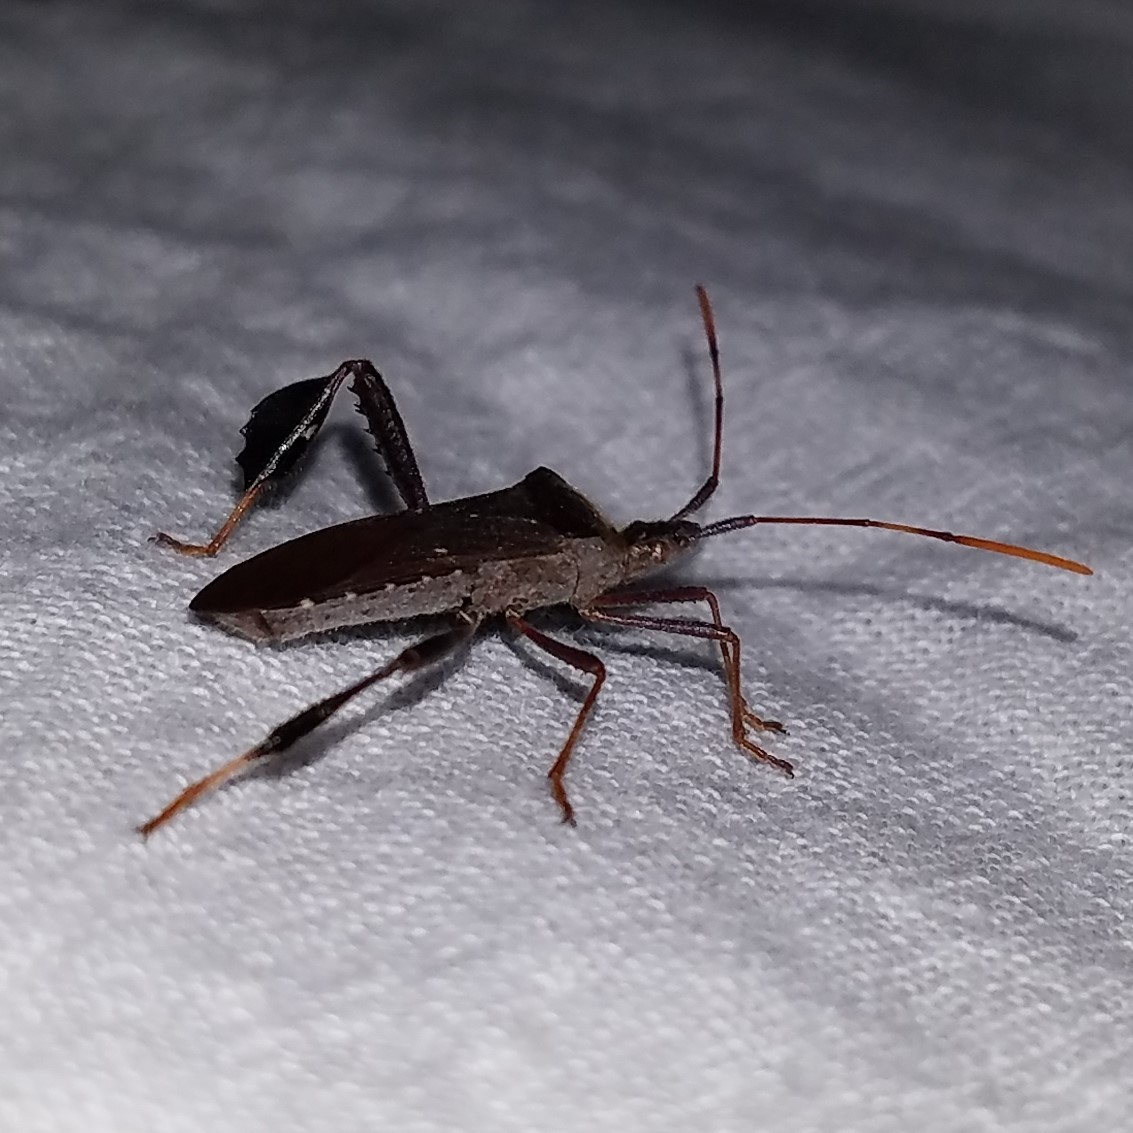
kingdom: Animalia
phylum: Arthropoda
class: Insecta
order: Hemiptera
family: Coreidae
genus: Leptoglossus
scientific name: Leptoglossus oppositus
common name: Northern leaf-footed bug
